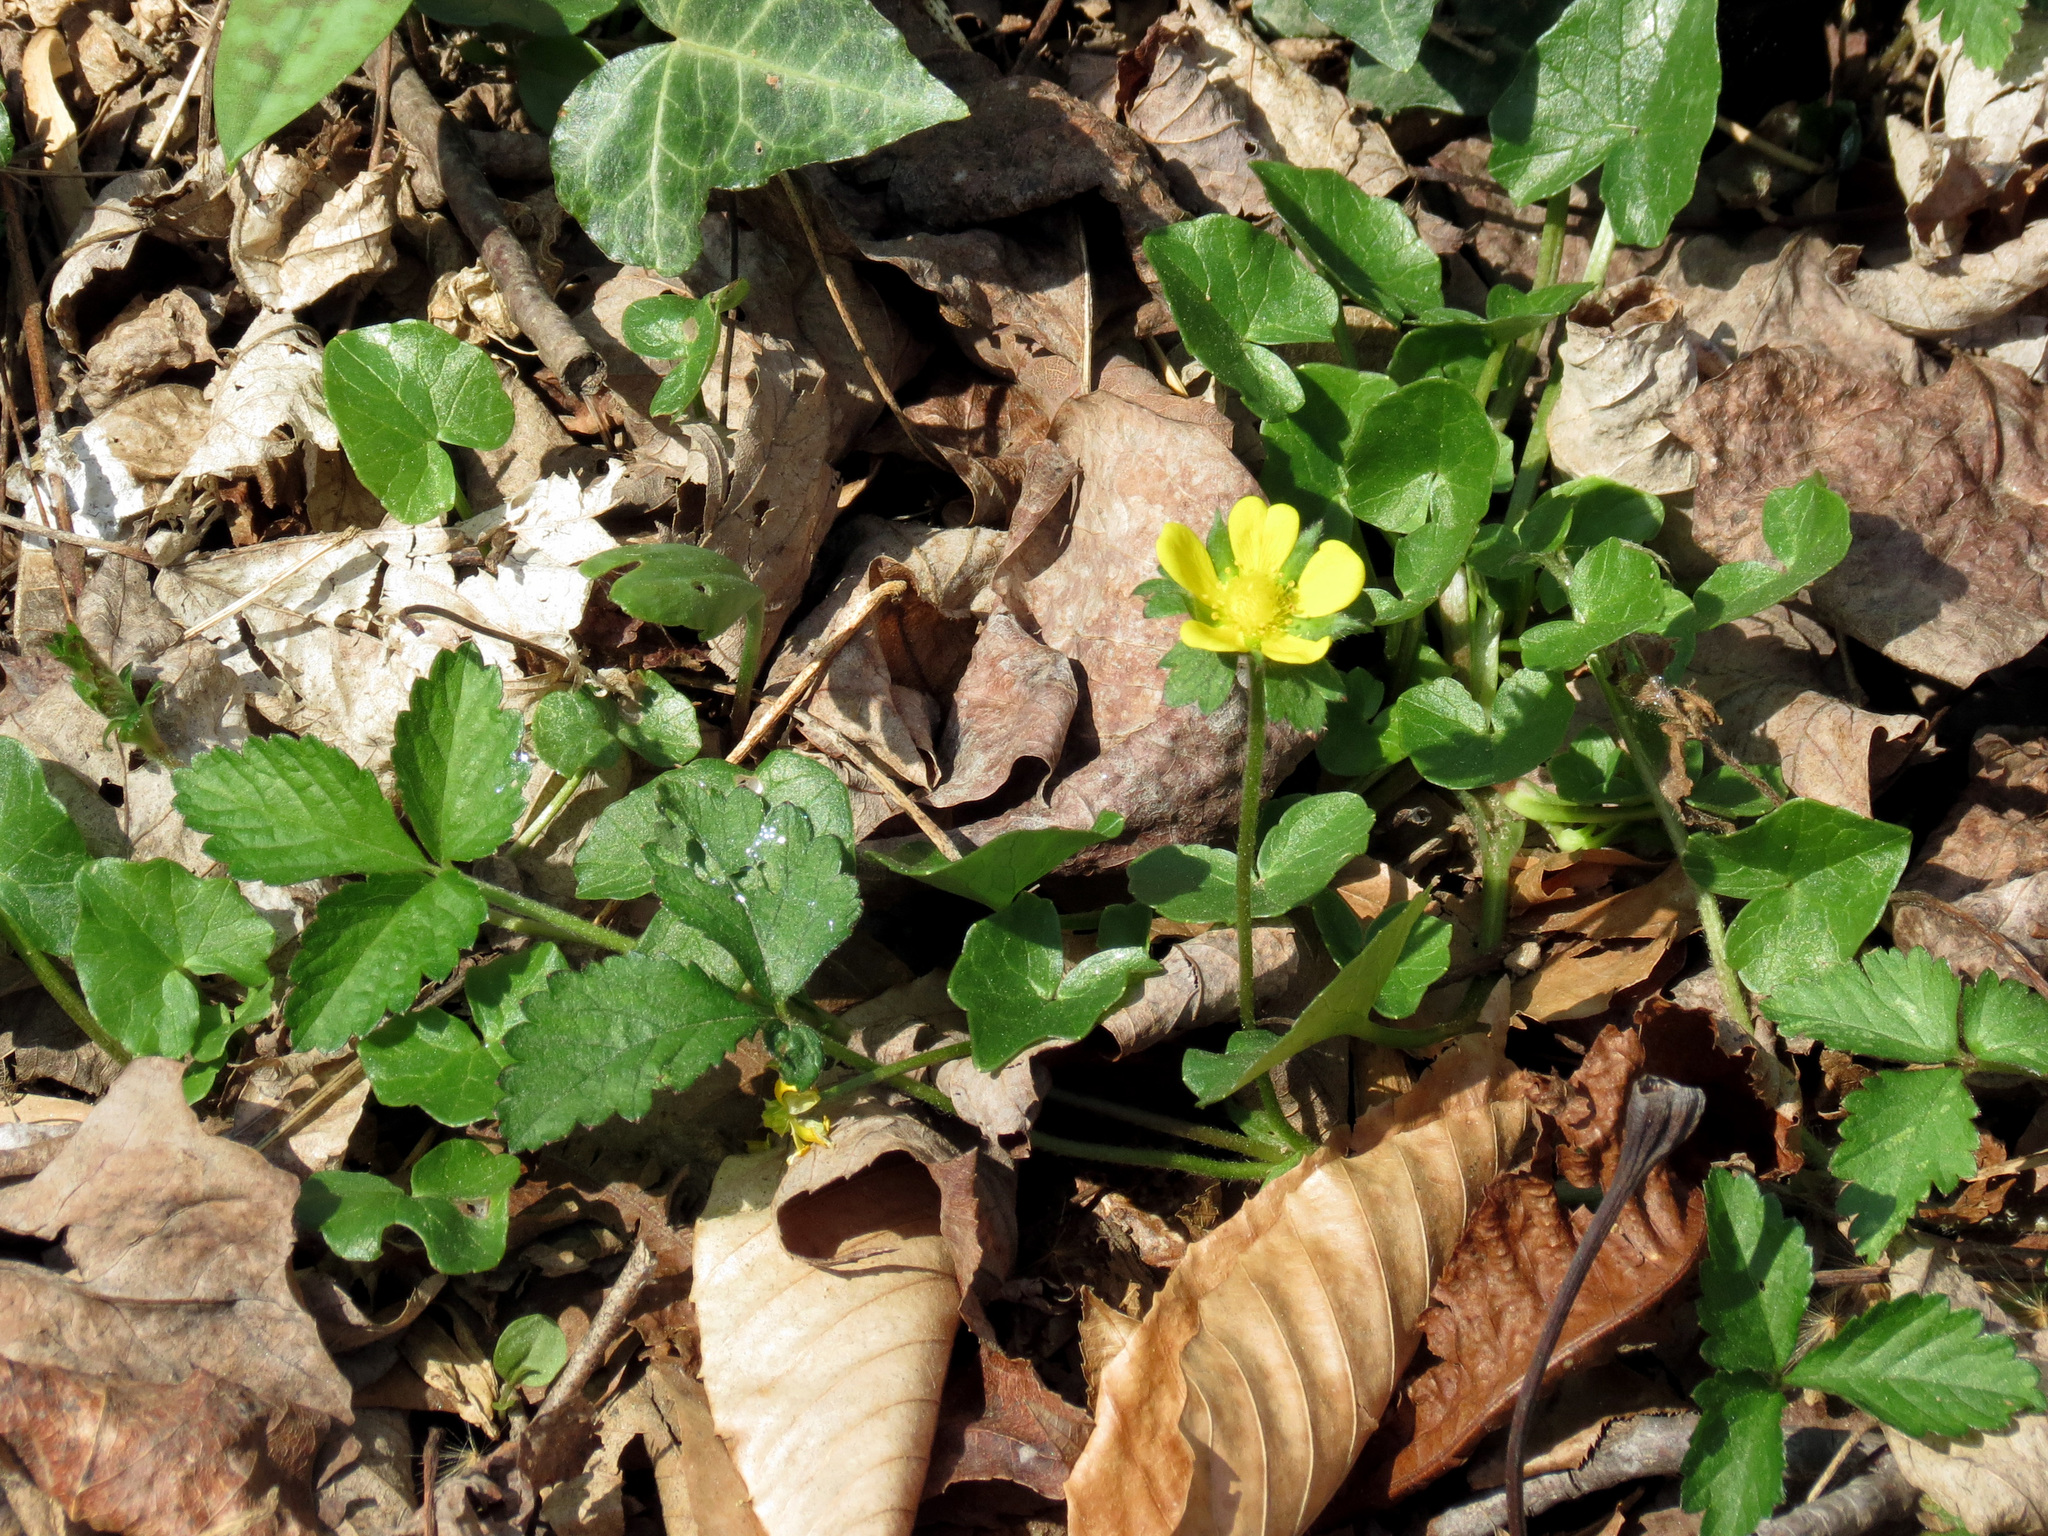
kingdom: Plantae
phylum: Tracheophyta
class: Magnoliopsida
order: Rosales
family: Rosaceae
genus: Potentilla
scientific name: Potentilla indica
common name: Yellow-flowered strawberry
